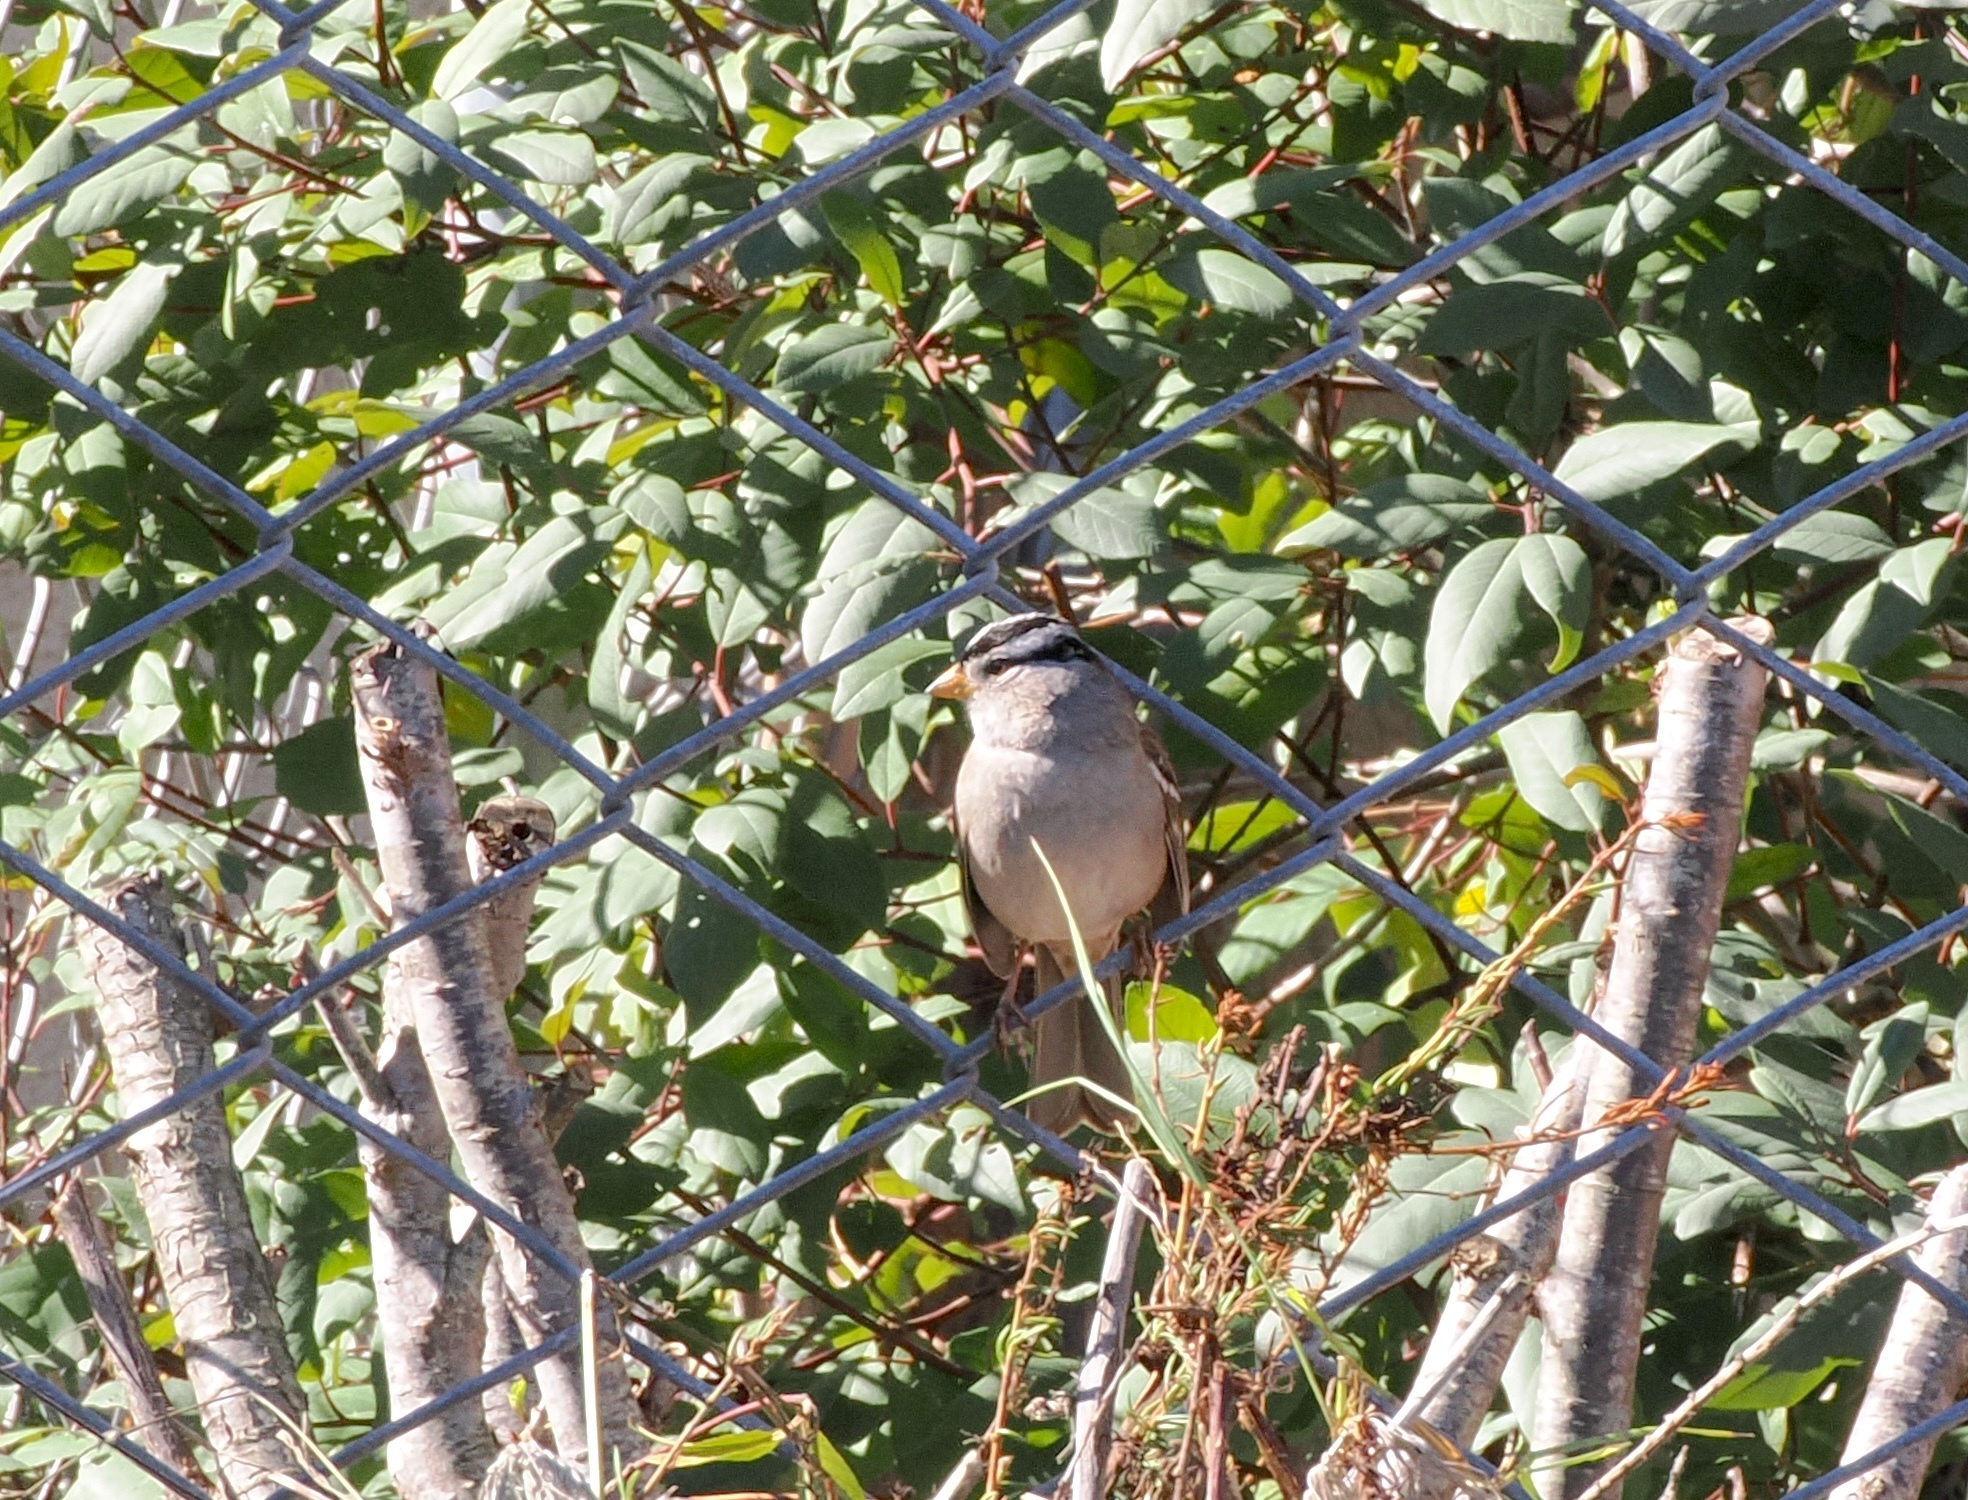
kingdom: Animalia
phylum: Chordata
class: Aves
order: Passeriformes
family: Passerellidae
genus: Zonotrichia
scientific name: Zonotrichia leucophrys
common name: White-crowned sparrow
